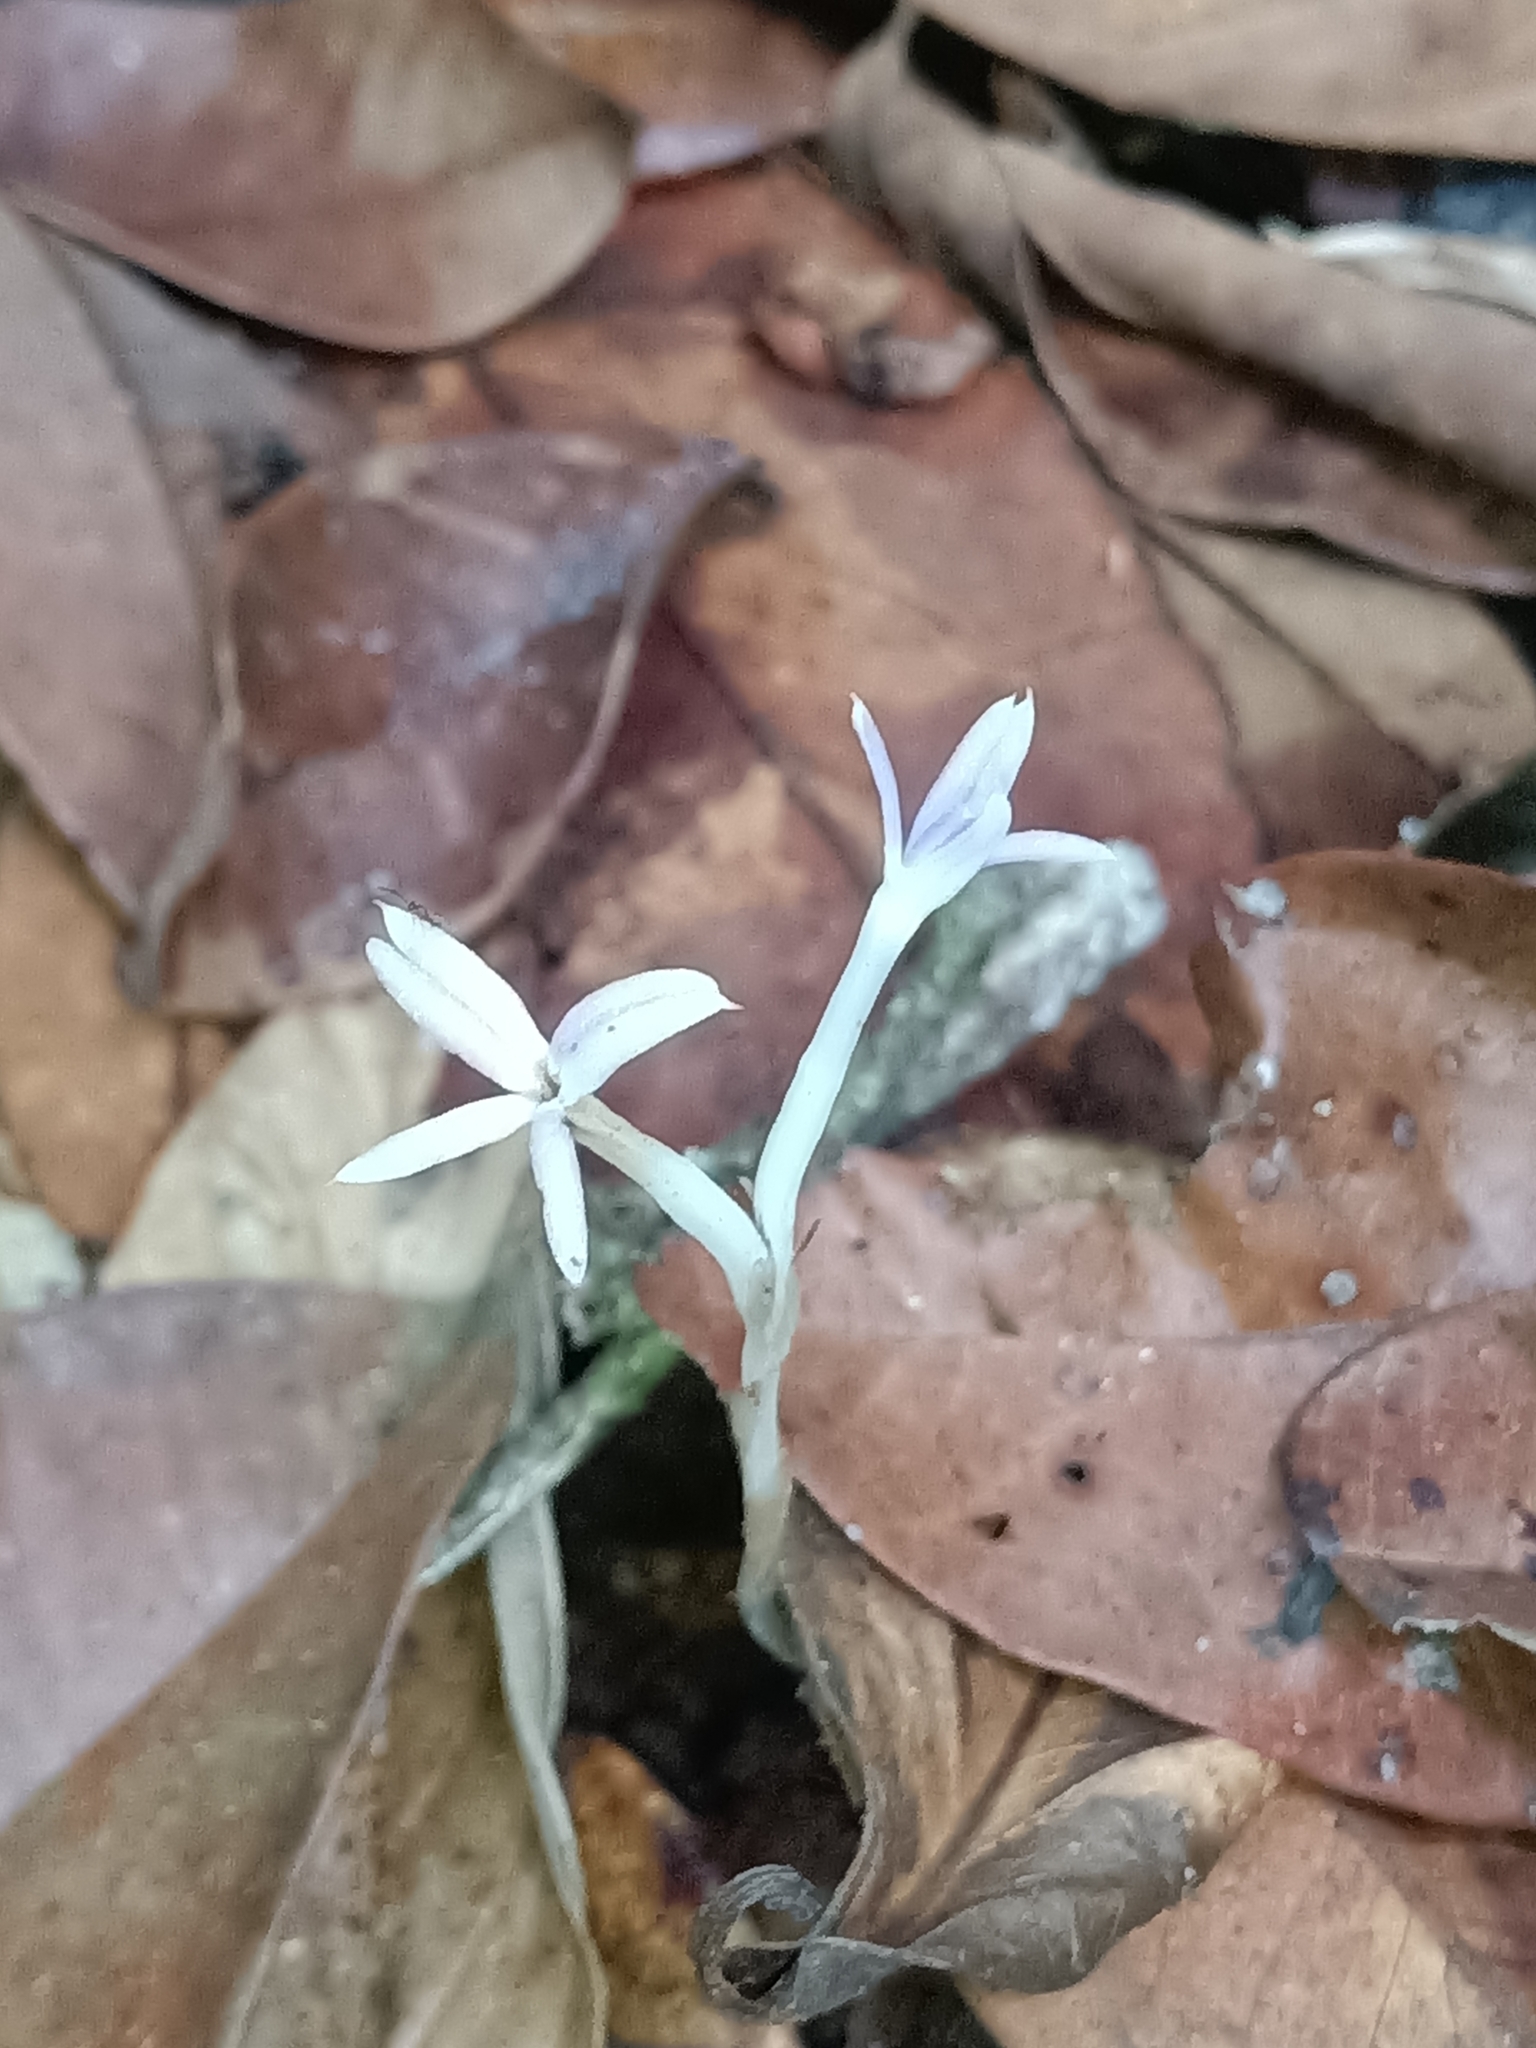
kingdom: Plantae
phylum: Tracheophyta
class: Liliopsida
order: Dioscoreales
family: Burmanniaceae
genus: Campylosiphon
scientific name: Campylosiphon purpurascens
